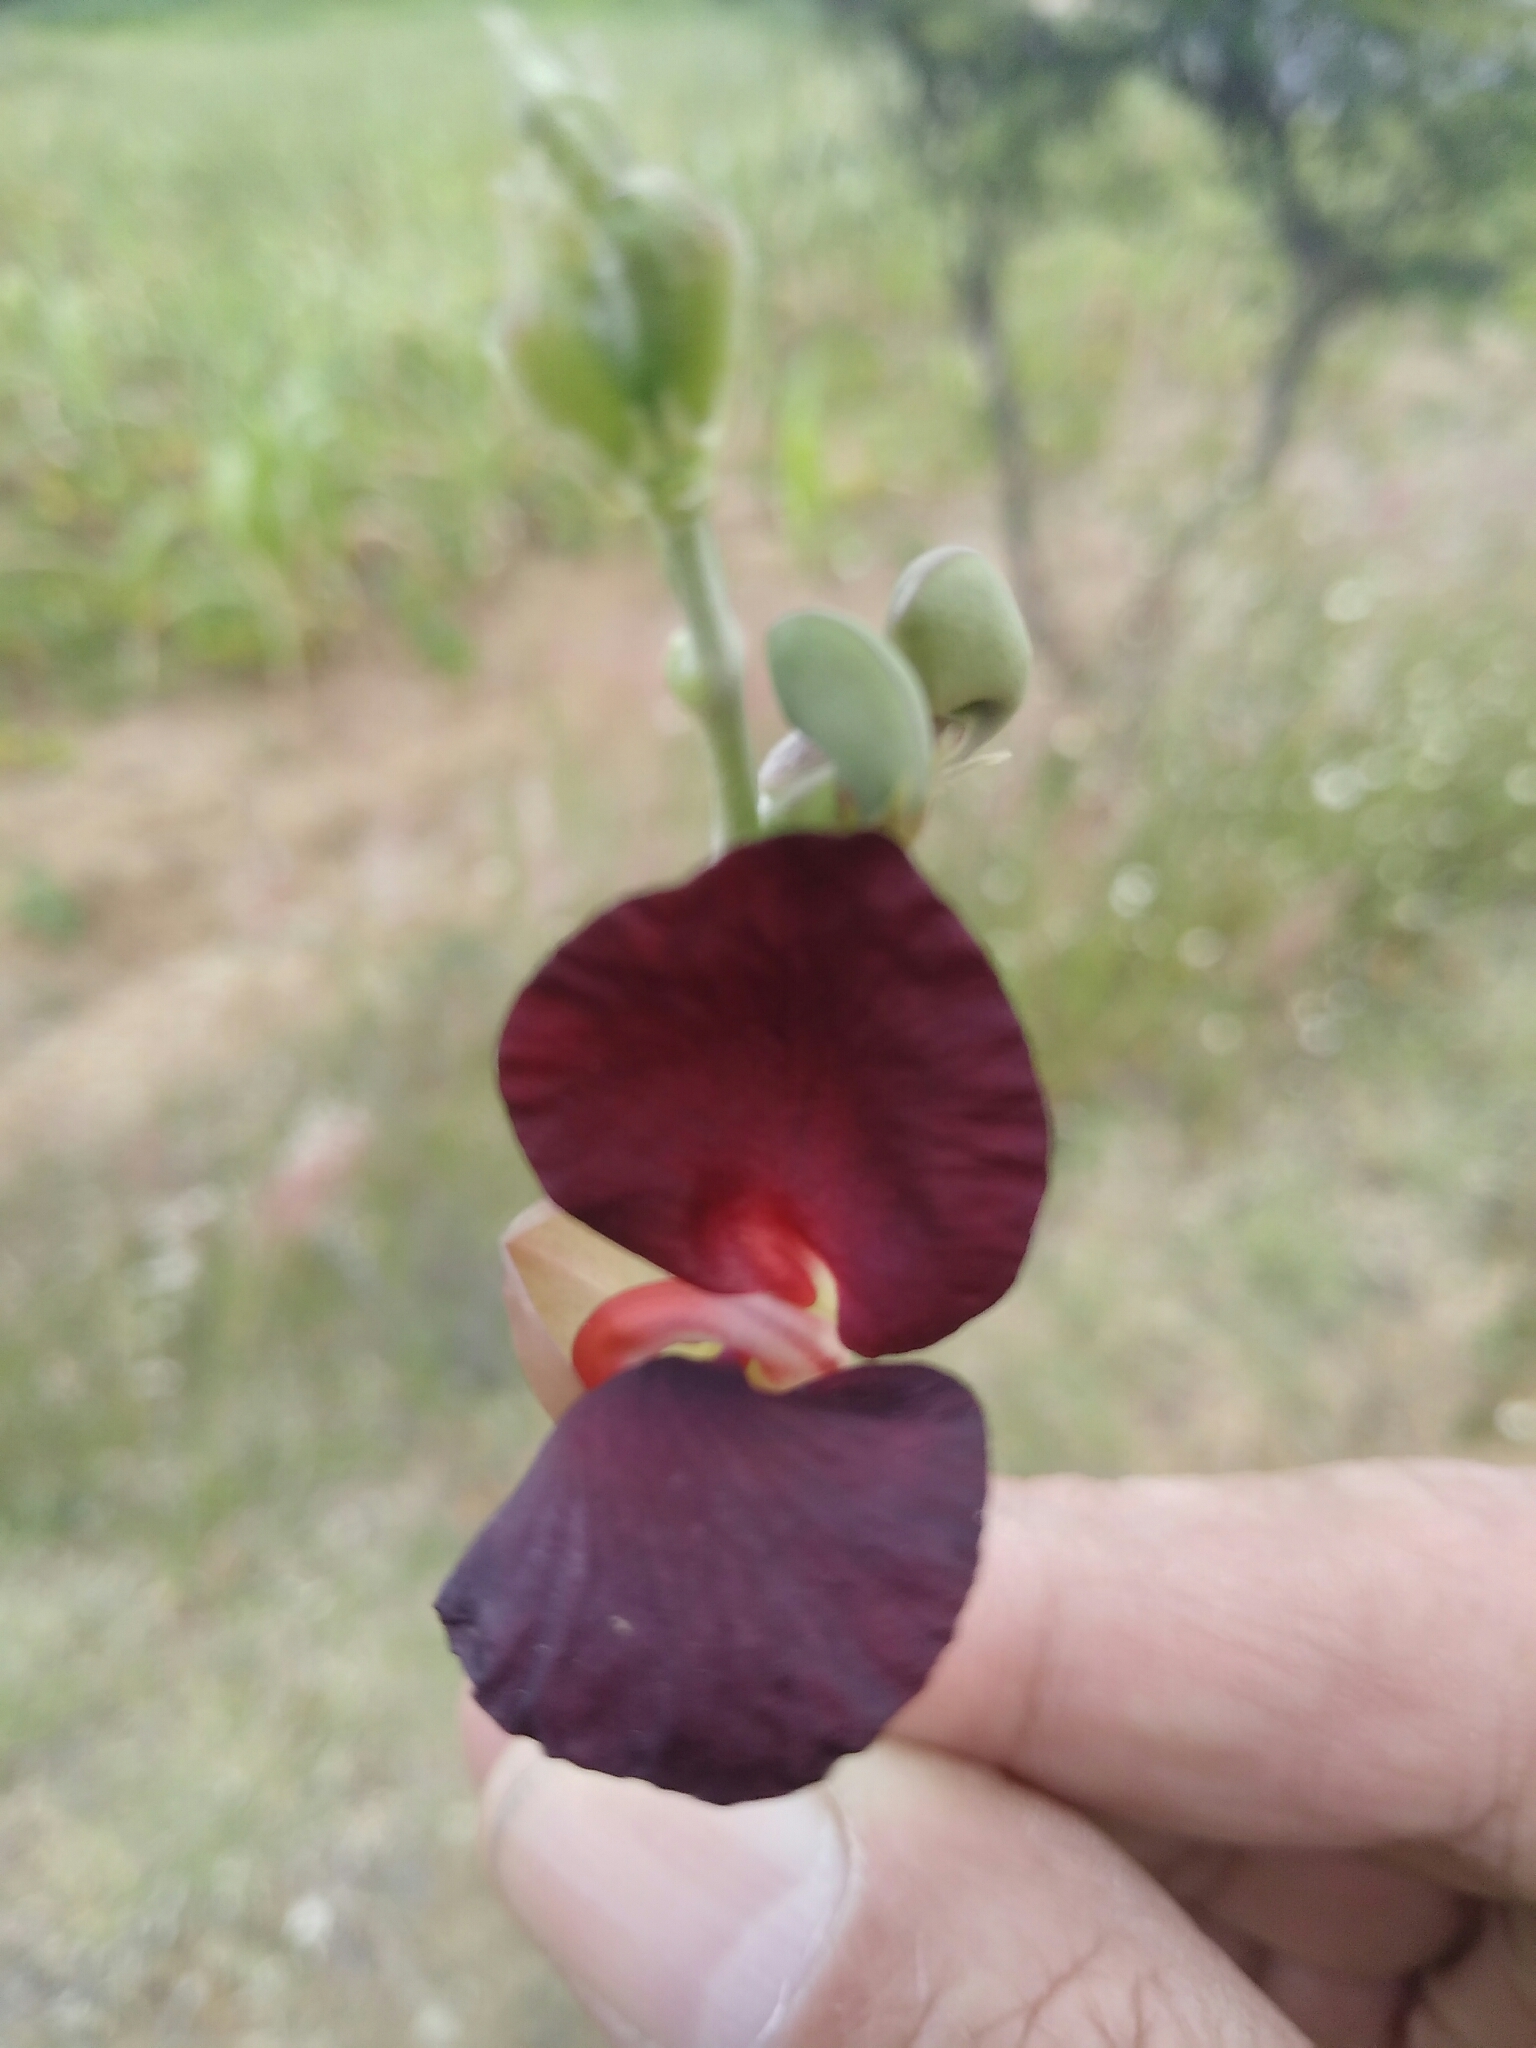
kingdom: Plantae
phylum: Tracheophyta
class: Magnoliopsida
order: Fabales
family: Fabaceae
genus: Macroptilium
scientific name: Macroptilium atropurpureum
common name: Purple bushbean
